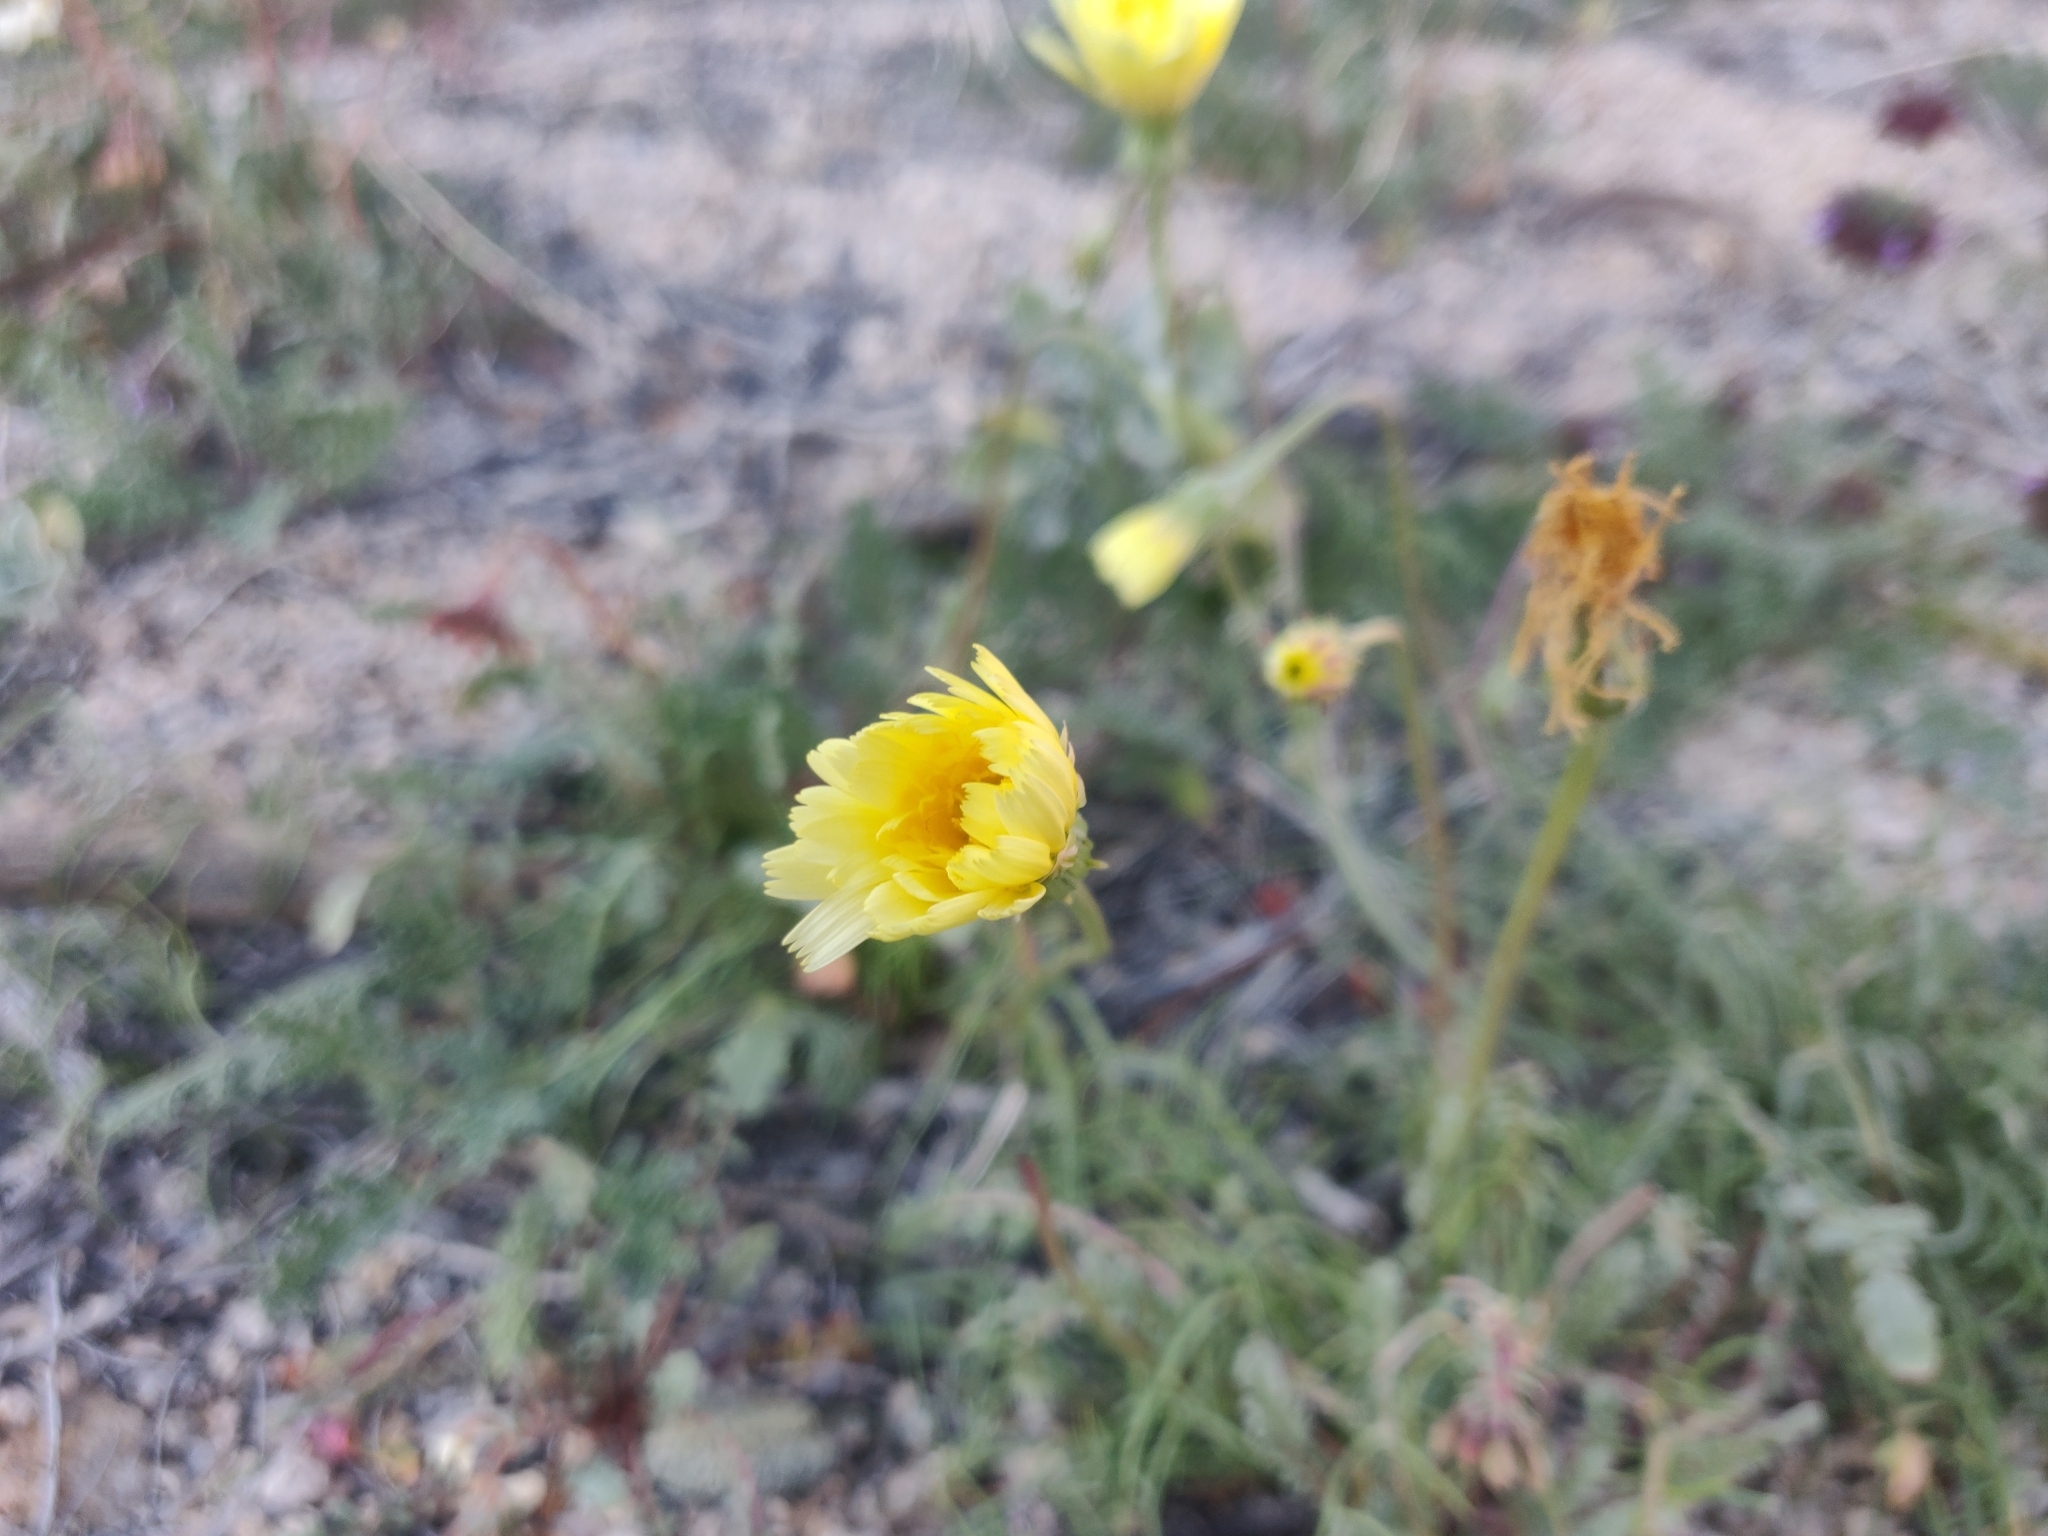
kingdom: Plantae
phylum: Tracheophyta
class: Magnoliopsida
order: Asterales
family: Asteraceae
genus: Malacothrix
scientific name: Malacothrix glabrata
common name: Smooth desert-dandelion
